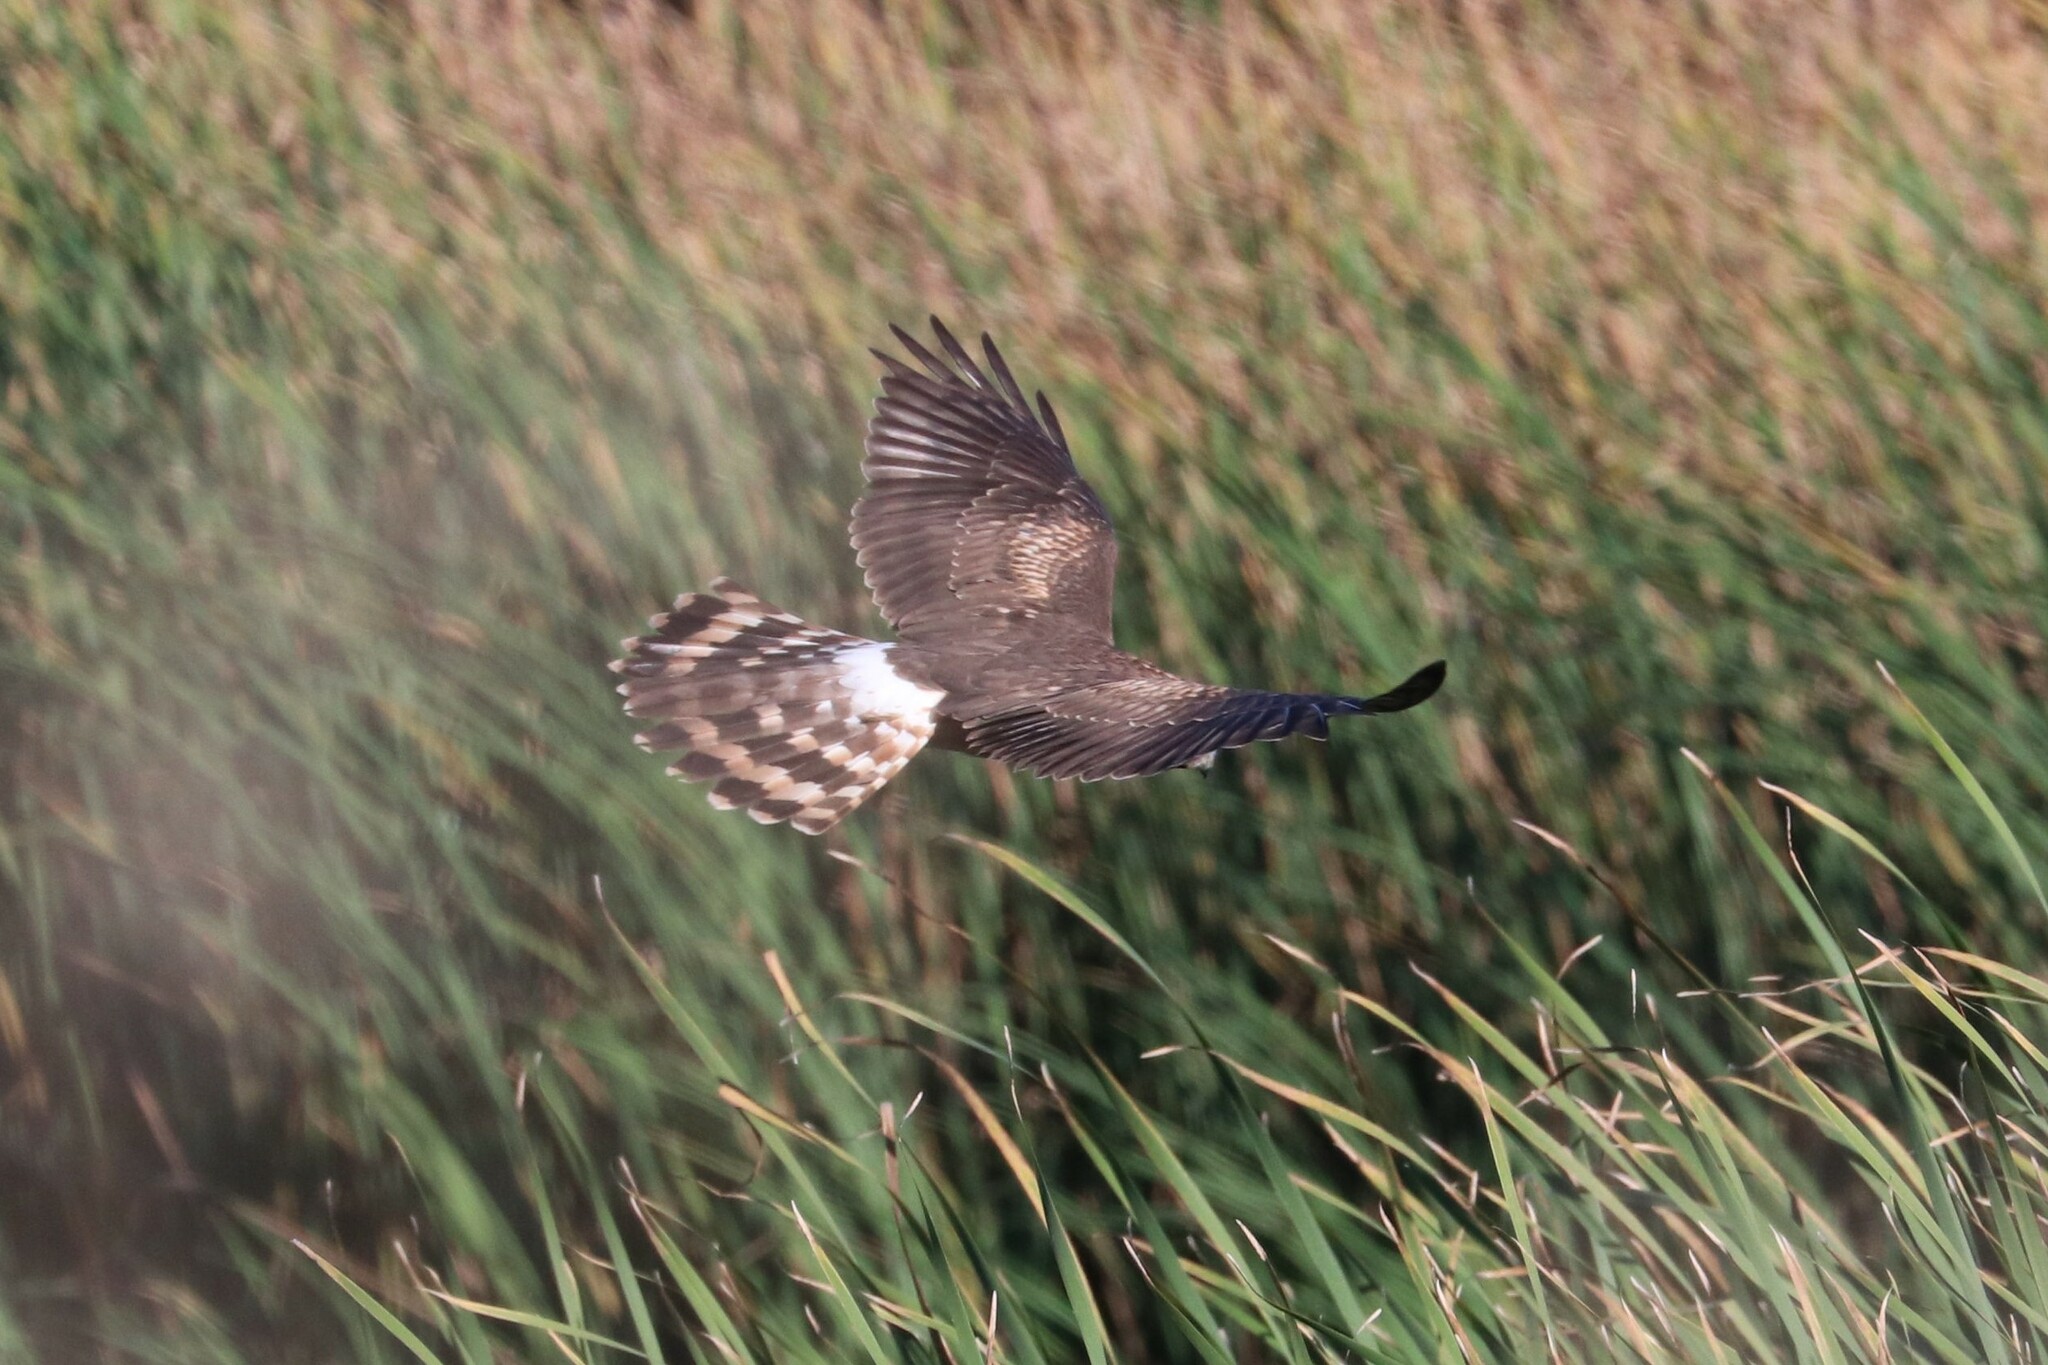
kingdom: Animalia
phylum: Chordata
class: Aves
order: Accipitriformes
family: Accipitridae
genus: Circus
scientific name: Circus cyaneus
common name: Hen harrier
